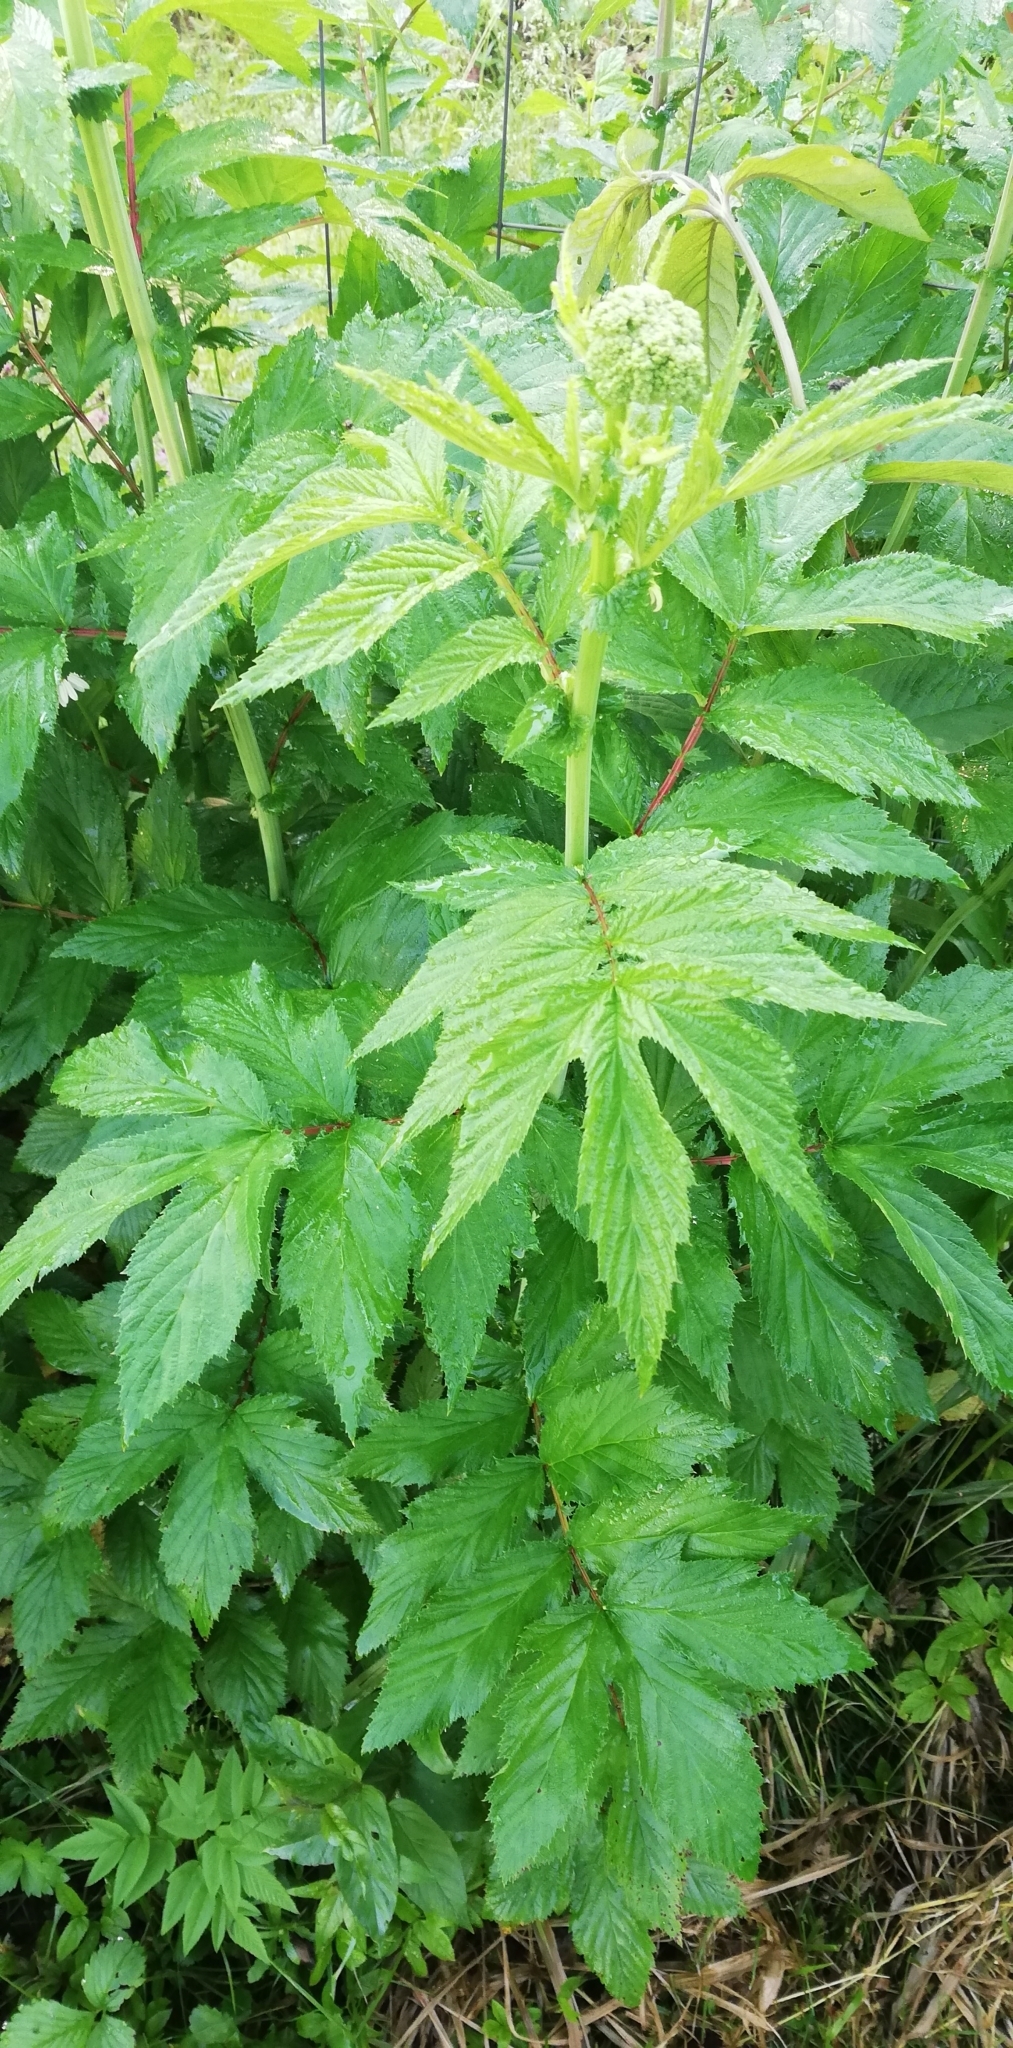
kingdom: Plantae
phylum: Tracheophyta
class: Magnoliopsida
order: Rosales
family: Rosaceae
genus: Filipendula
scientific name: Filipendula ulmaria
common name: Meadowsweet
